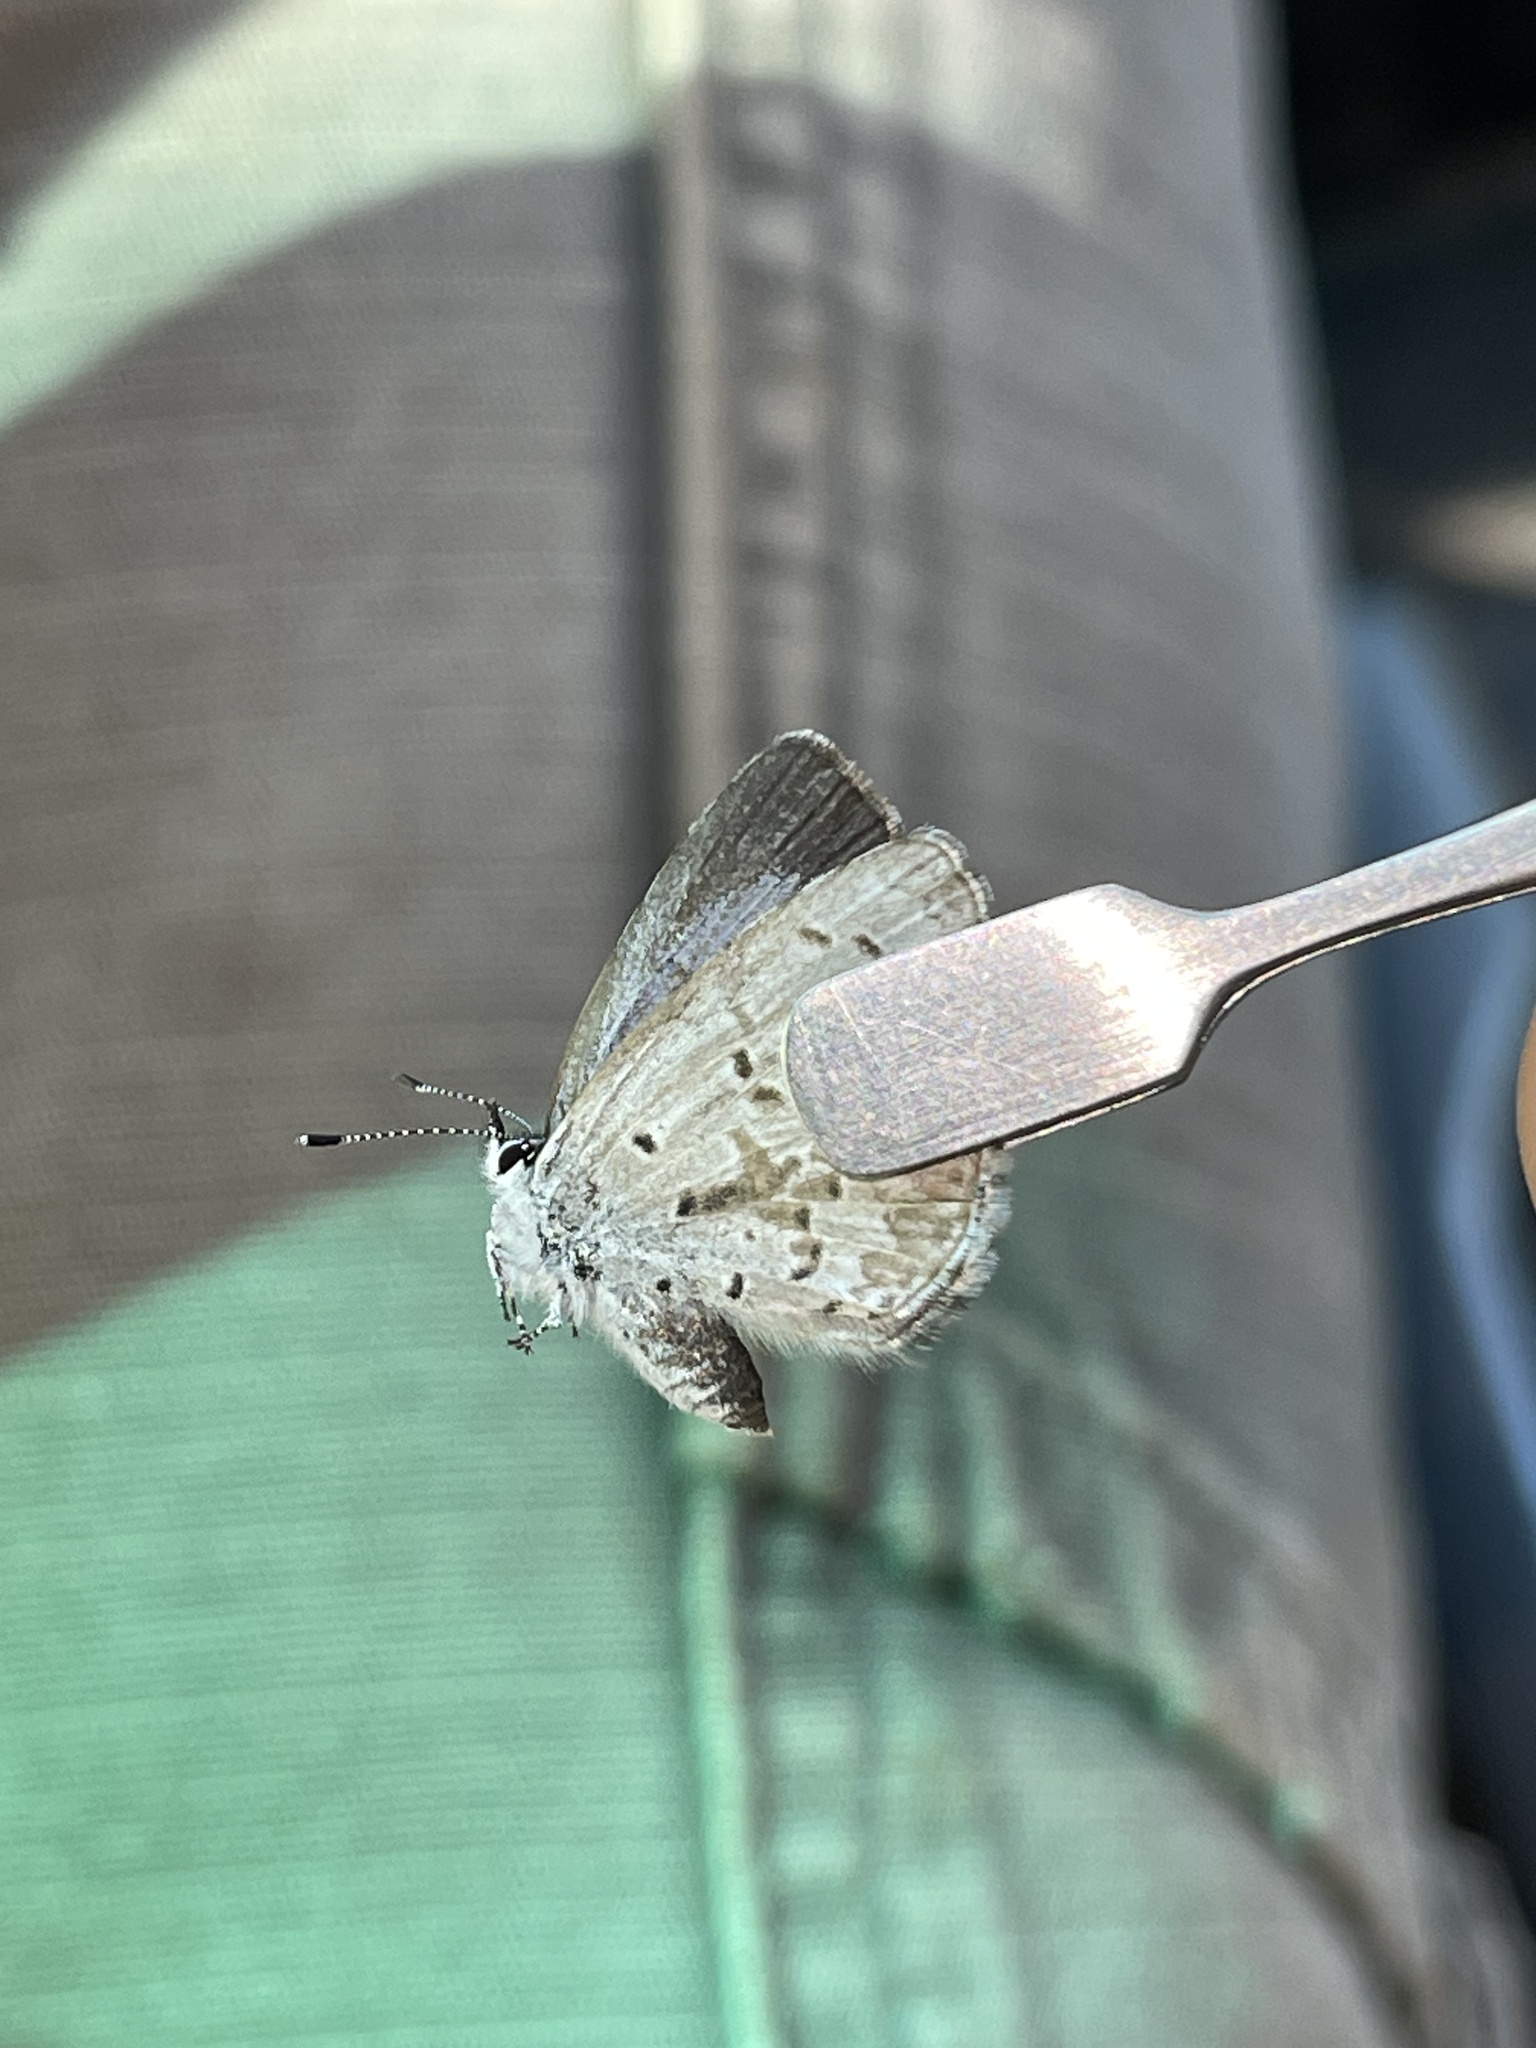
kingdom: Animalia
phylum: Arthropoda
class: Insecta
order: Lepidoptera
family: Lycaenidae
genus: Celastrina
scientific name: Celastrina lucia
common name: Lucia azure
